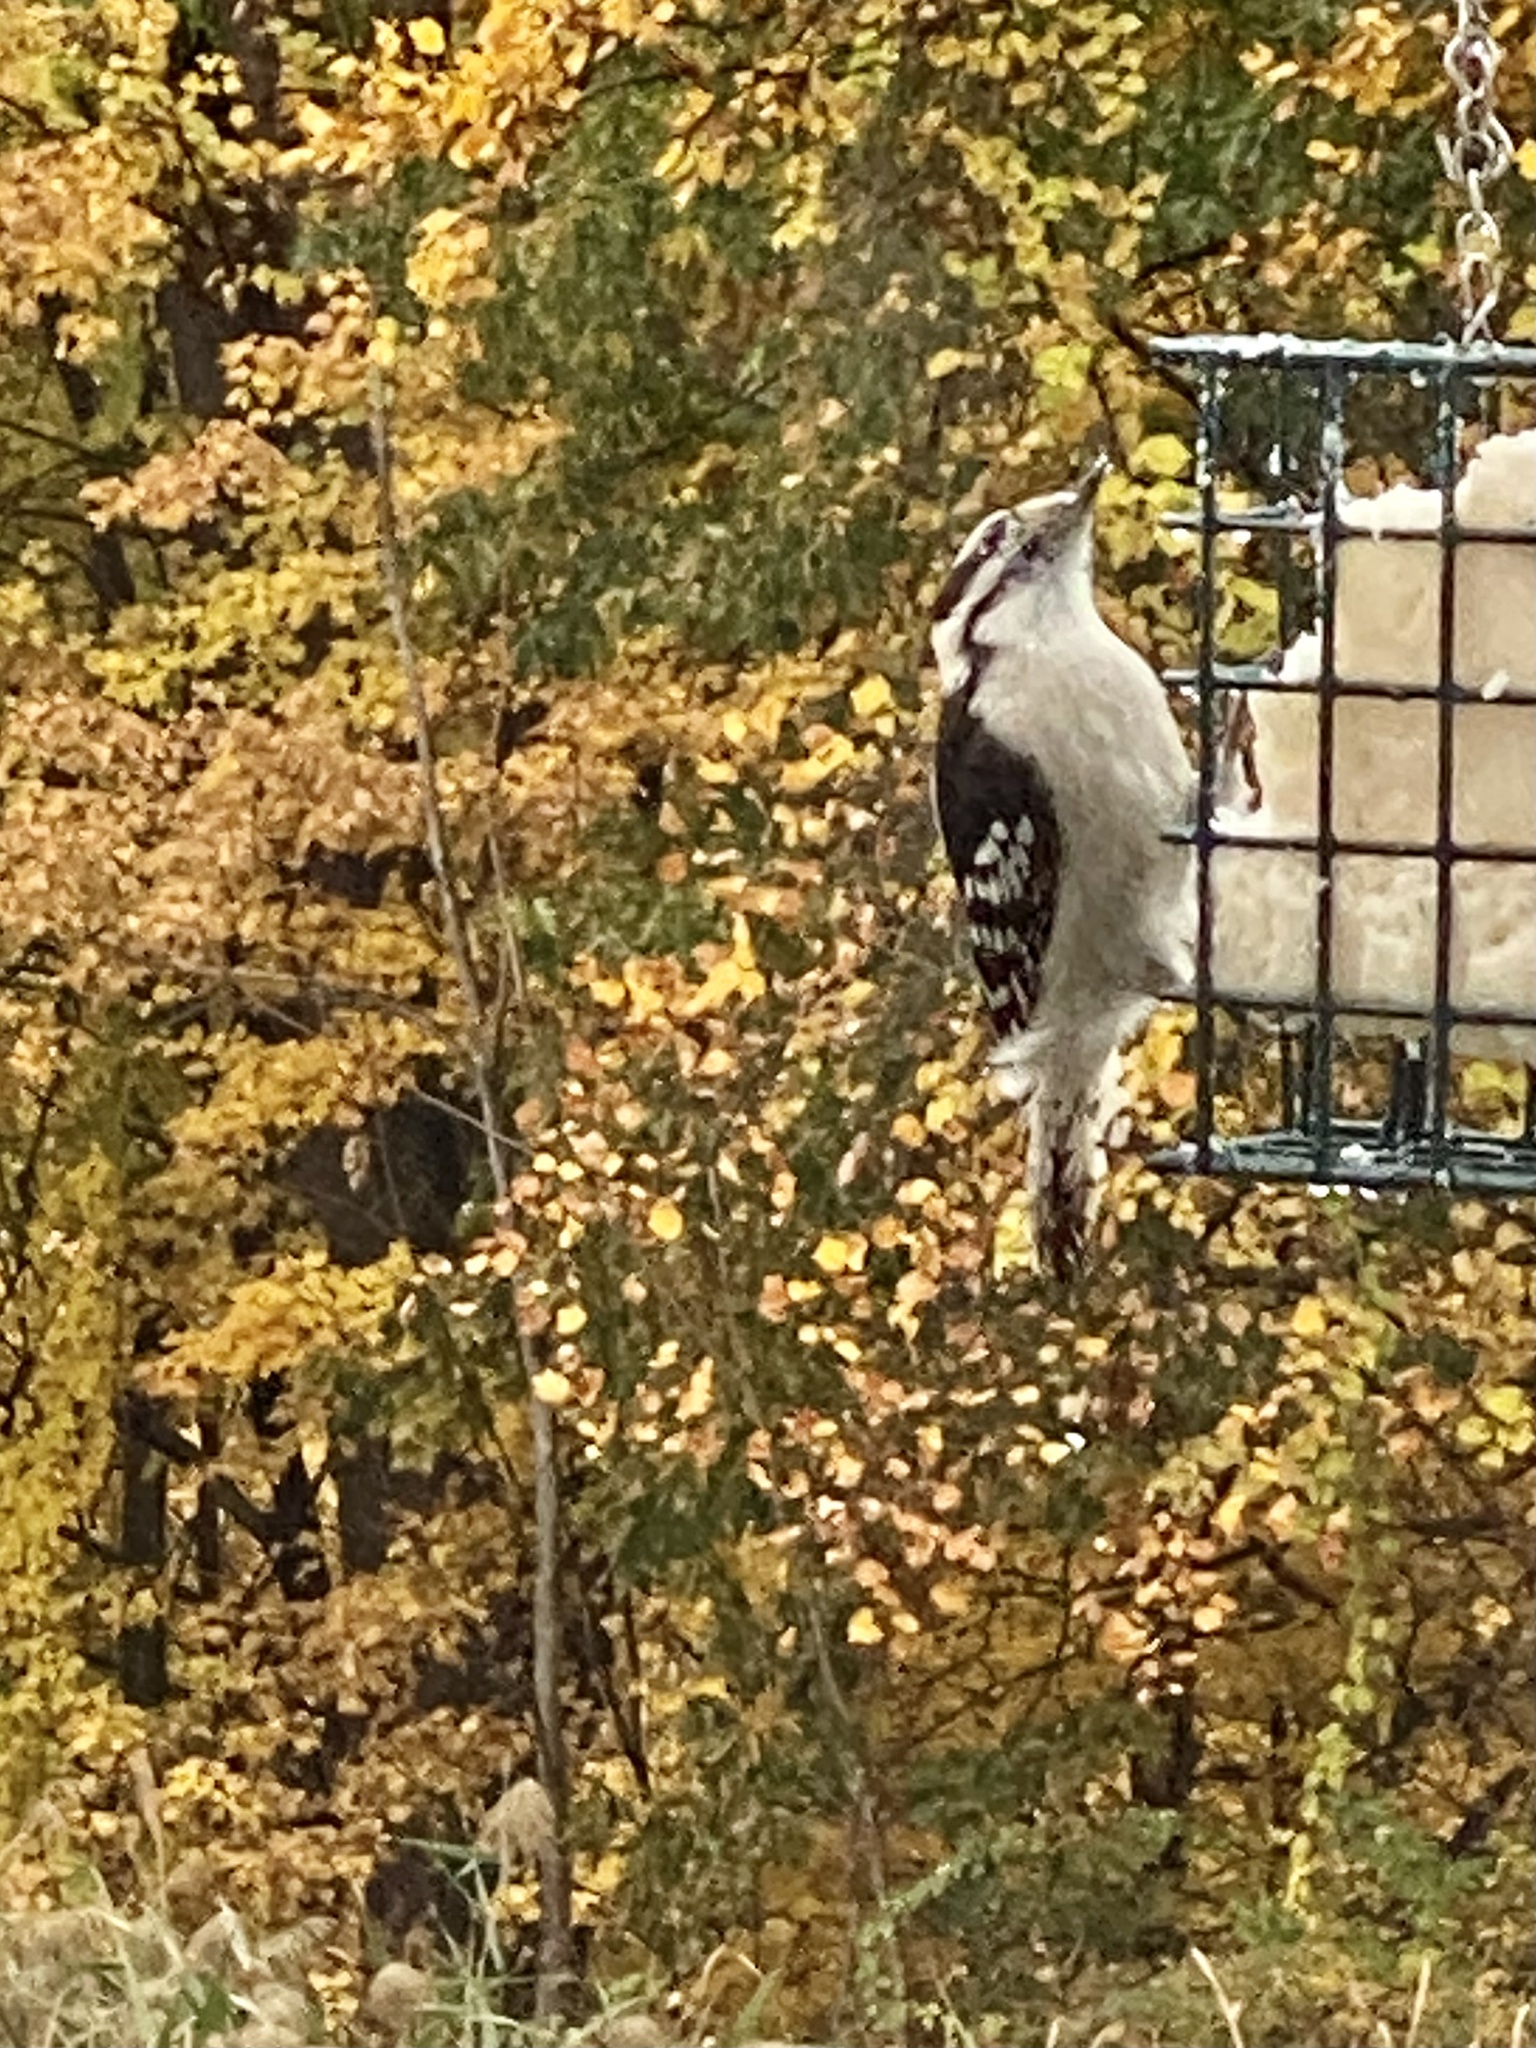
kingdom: Animalia
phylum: Chordata
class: Aves
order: Piciformes
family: Picidae
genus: Dryobates
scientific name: Dryobates pubescens
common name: Downy woodpecker
